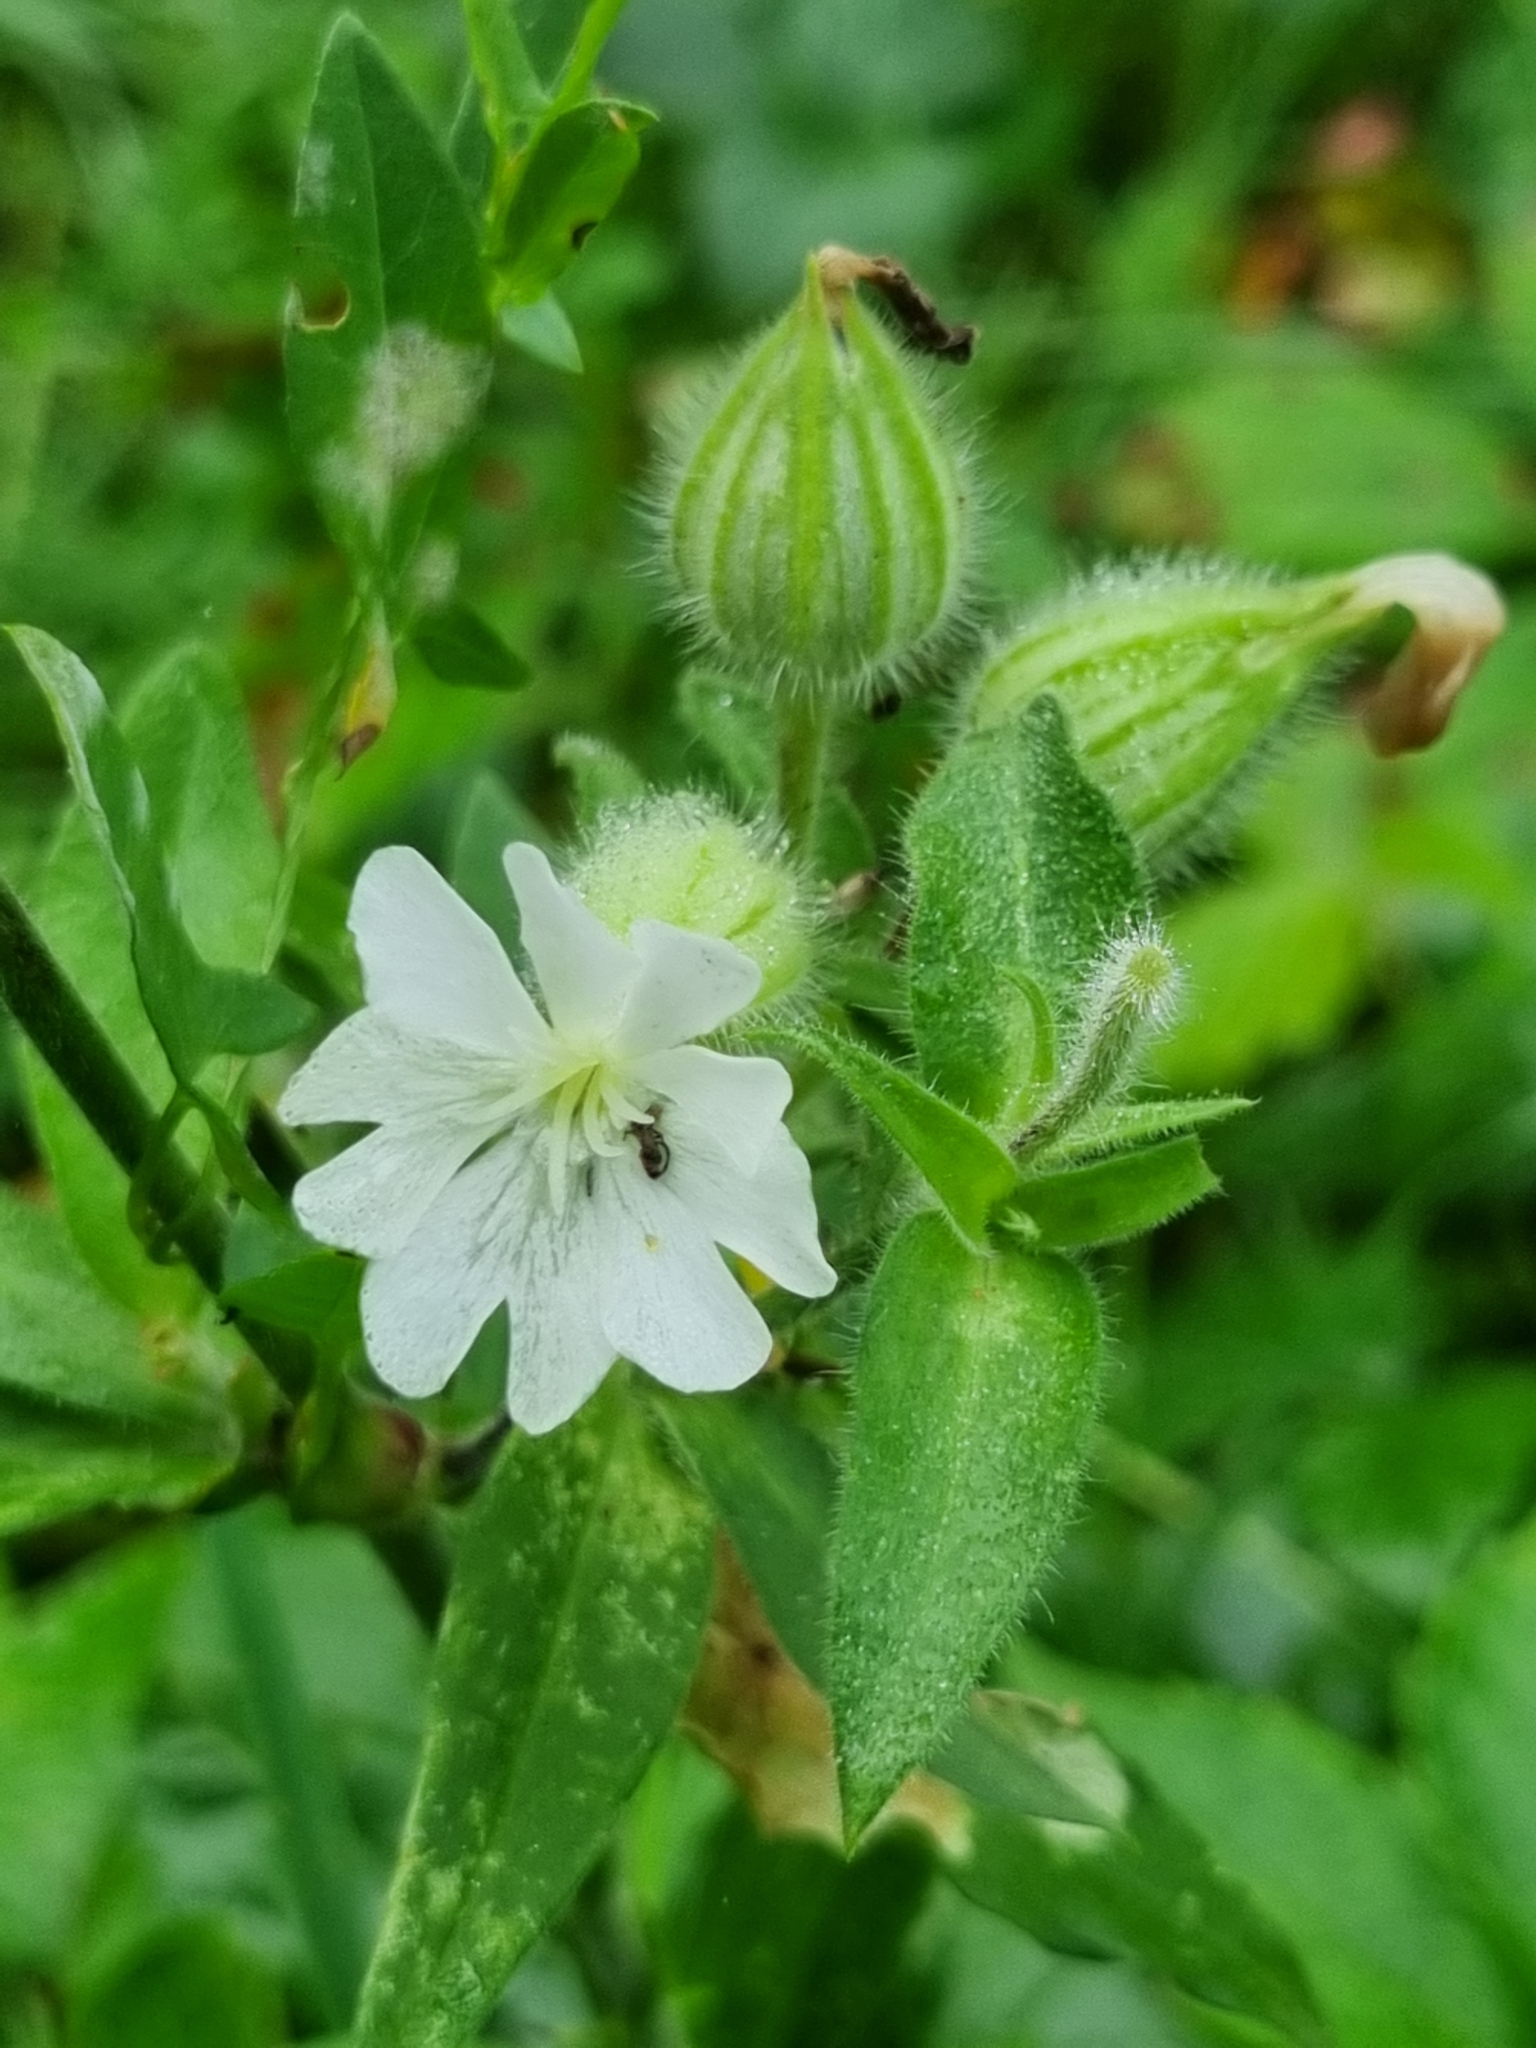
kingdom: Plantae
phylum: Tracheophyta
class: Magnoliopsida
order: Caryophyllales
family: Caryophyllaceae
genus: Silene
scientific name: Silene latifolia
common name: White campion
